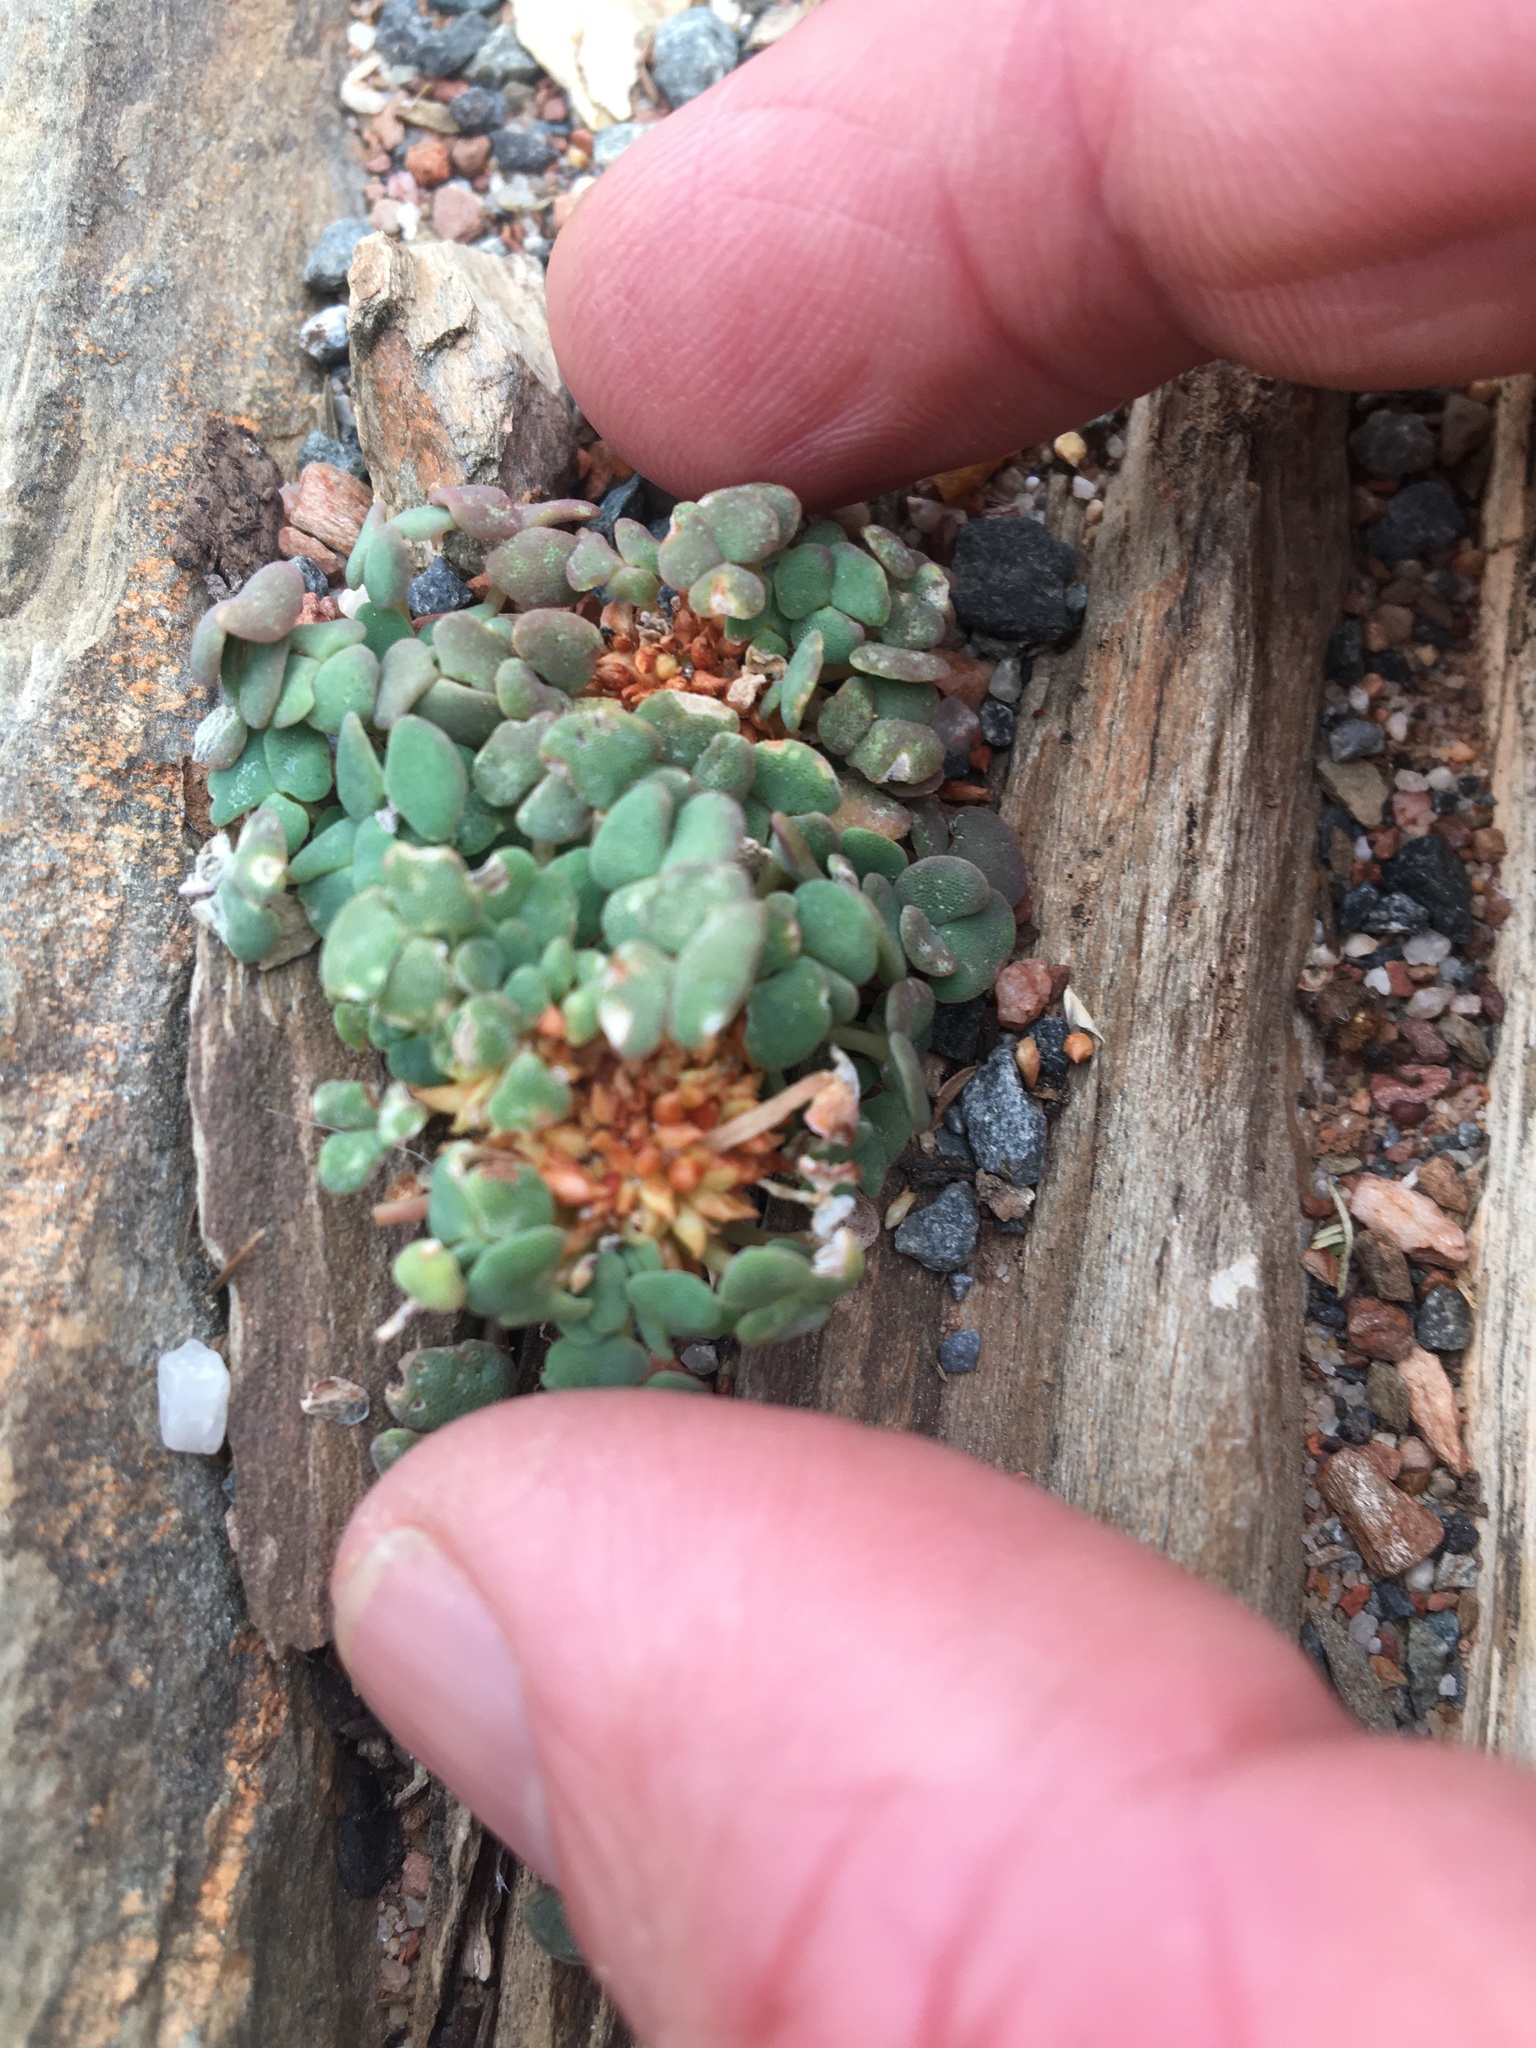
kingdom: Plantae
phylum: Tracheophyta
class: Magnoliopsida
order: Oxalidales
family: Oxalidaceae
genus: Oxalis
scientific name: Oxalis convexula
